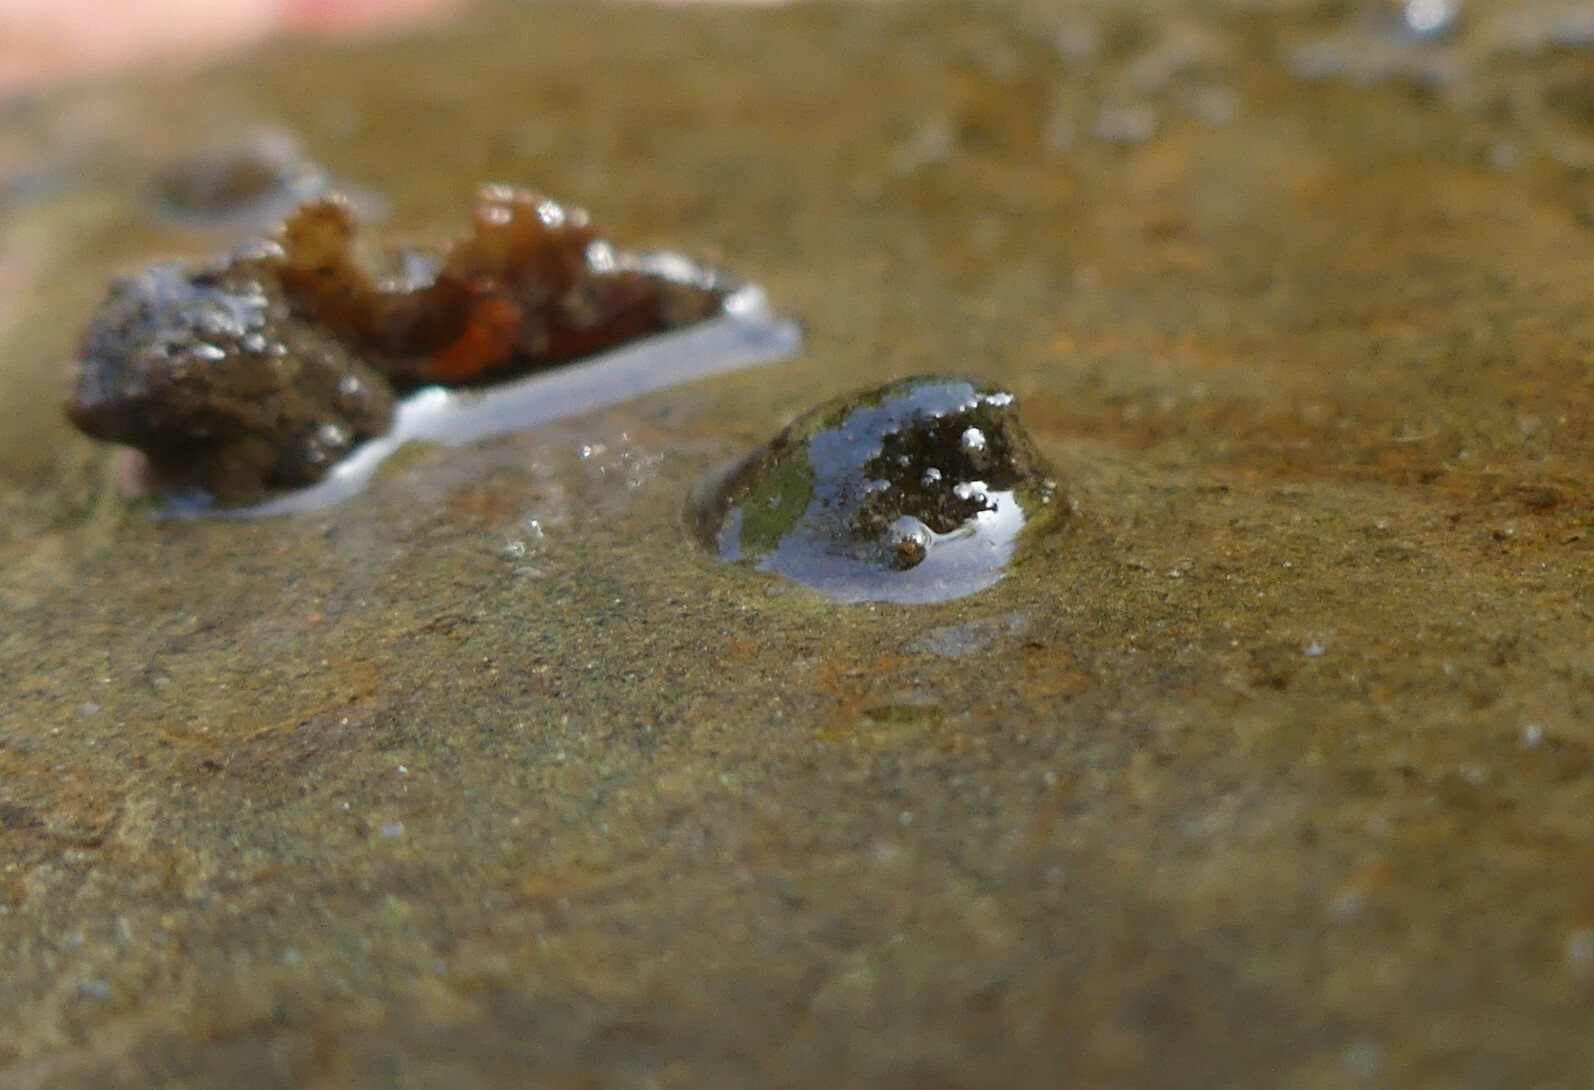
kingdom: Animalia
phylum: Mollusca
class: Gastropoda
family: Planorbidae
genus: Ancylus
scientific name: Ancylus fluviatilis
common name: River limpet
